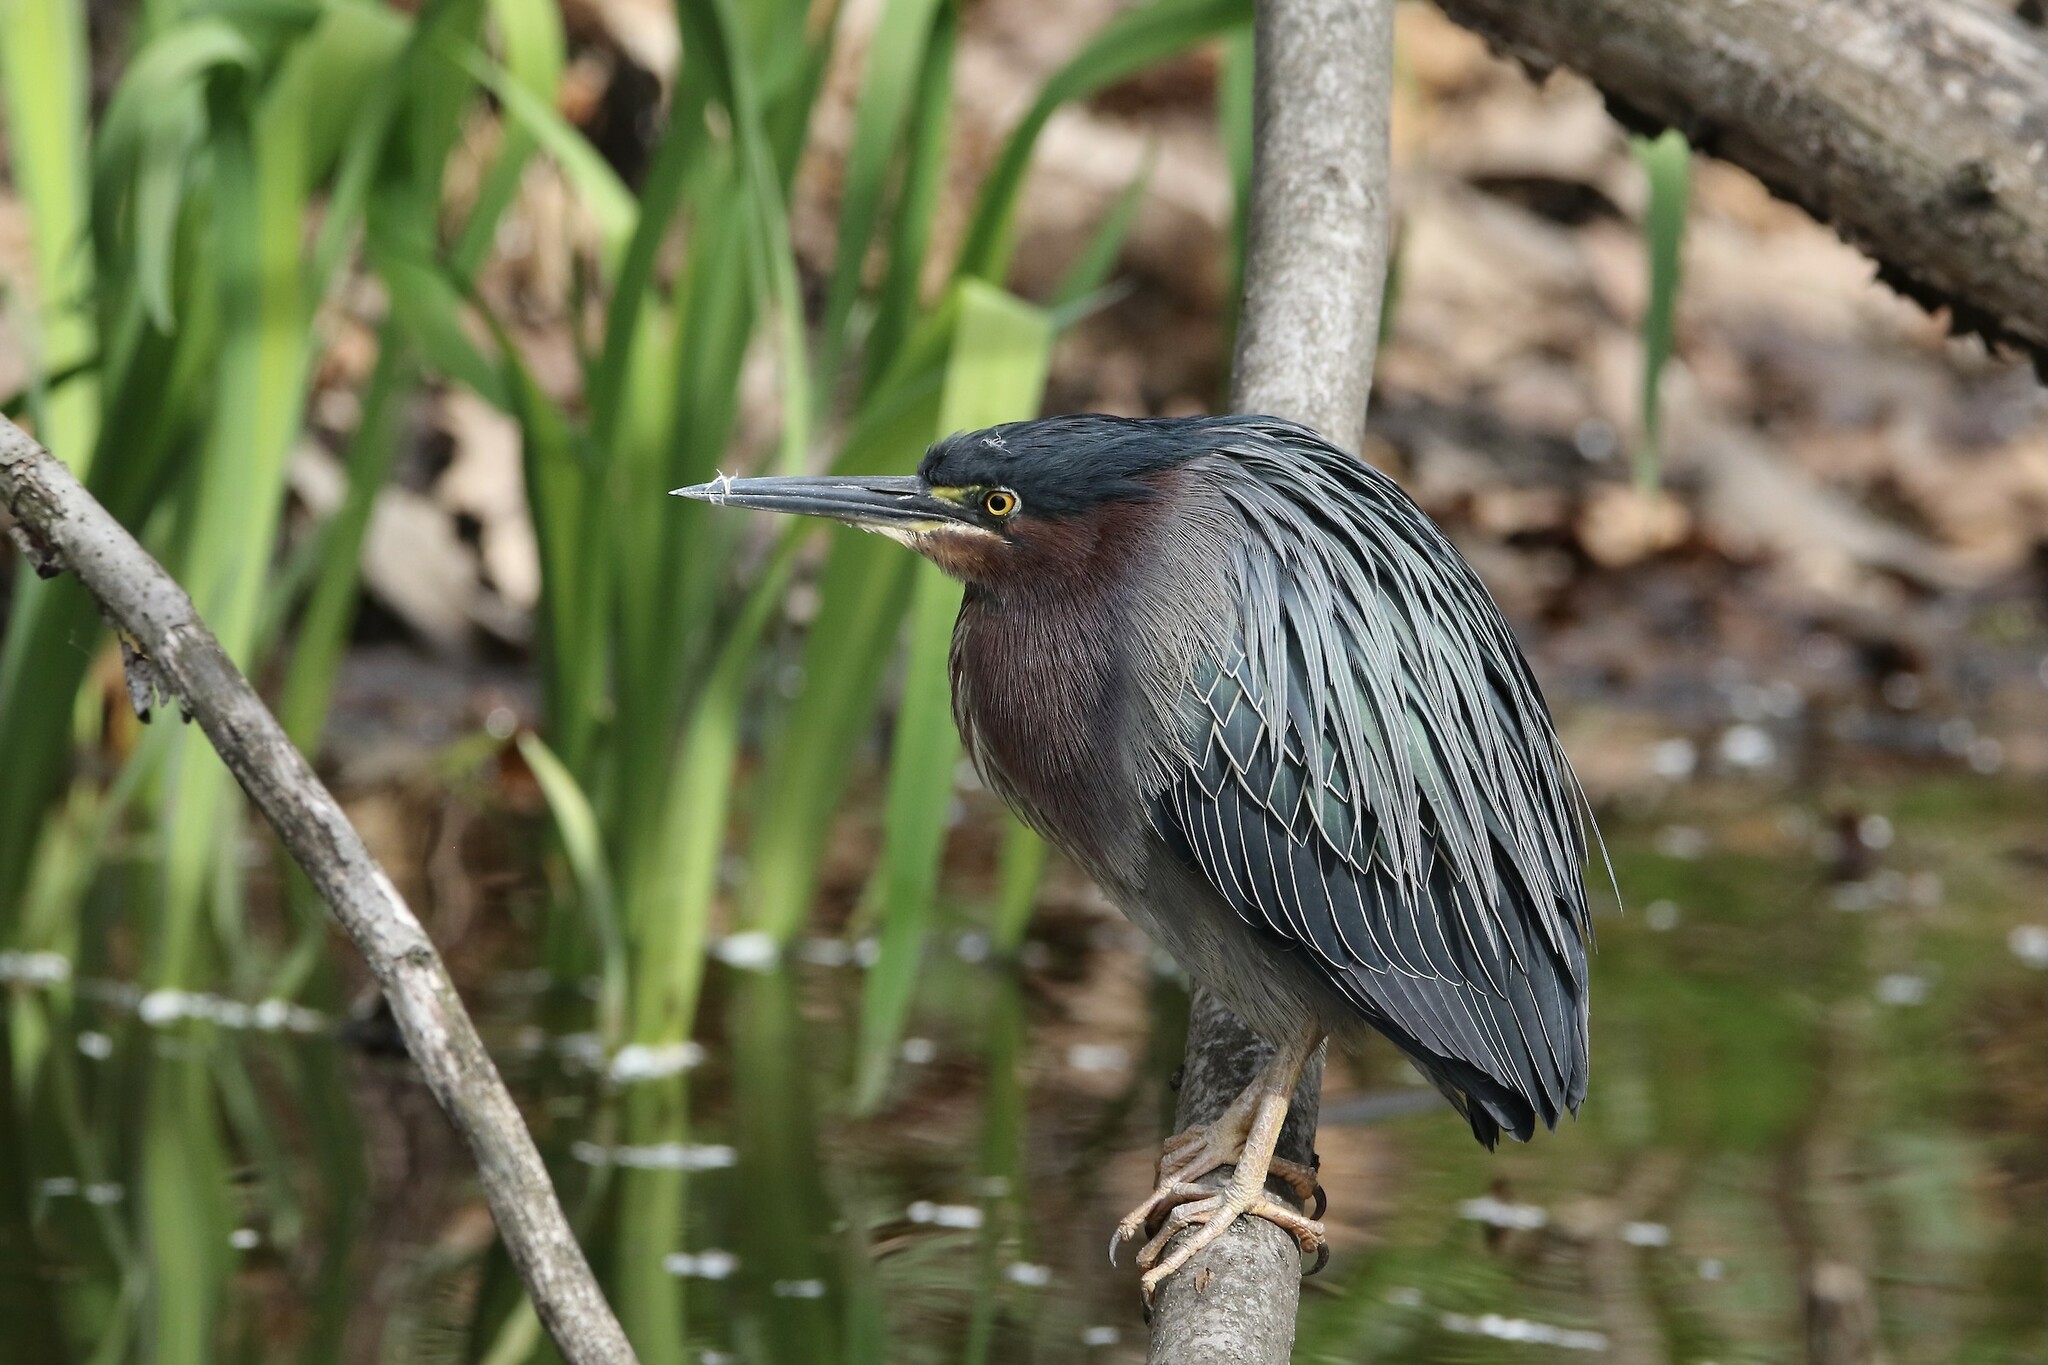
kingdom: Animalia
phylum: Chordata
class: Aves
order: Pelecaniformes
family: Ardeidae
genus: Butorides
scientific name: Butorides virescens
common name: Green heron
